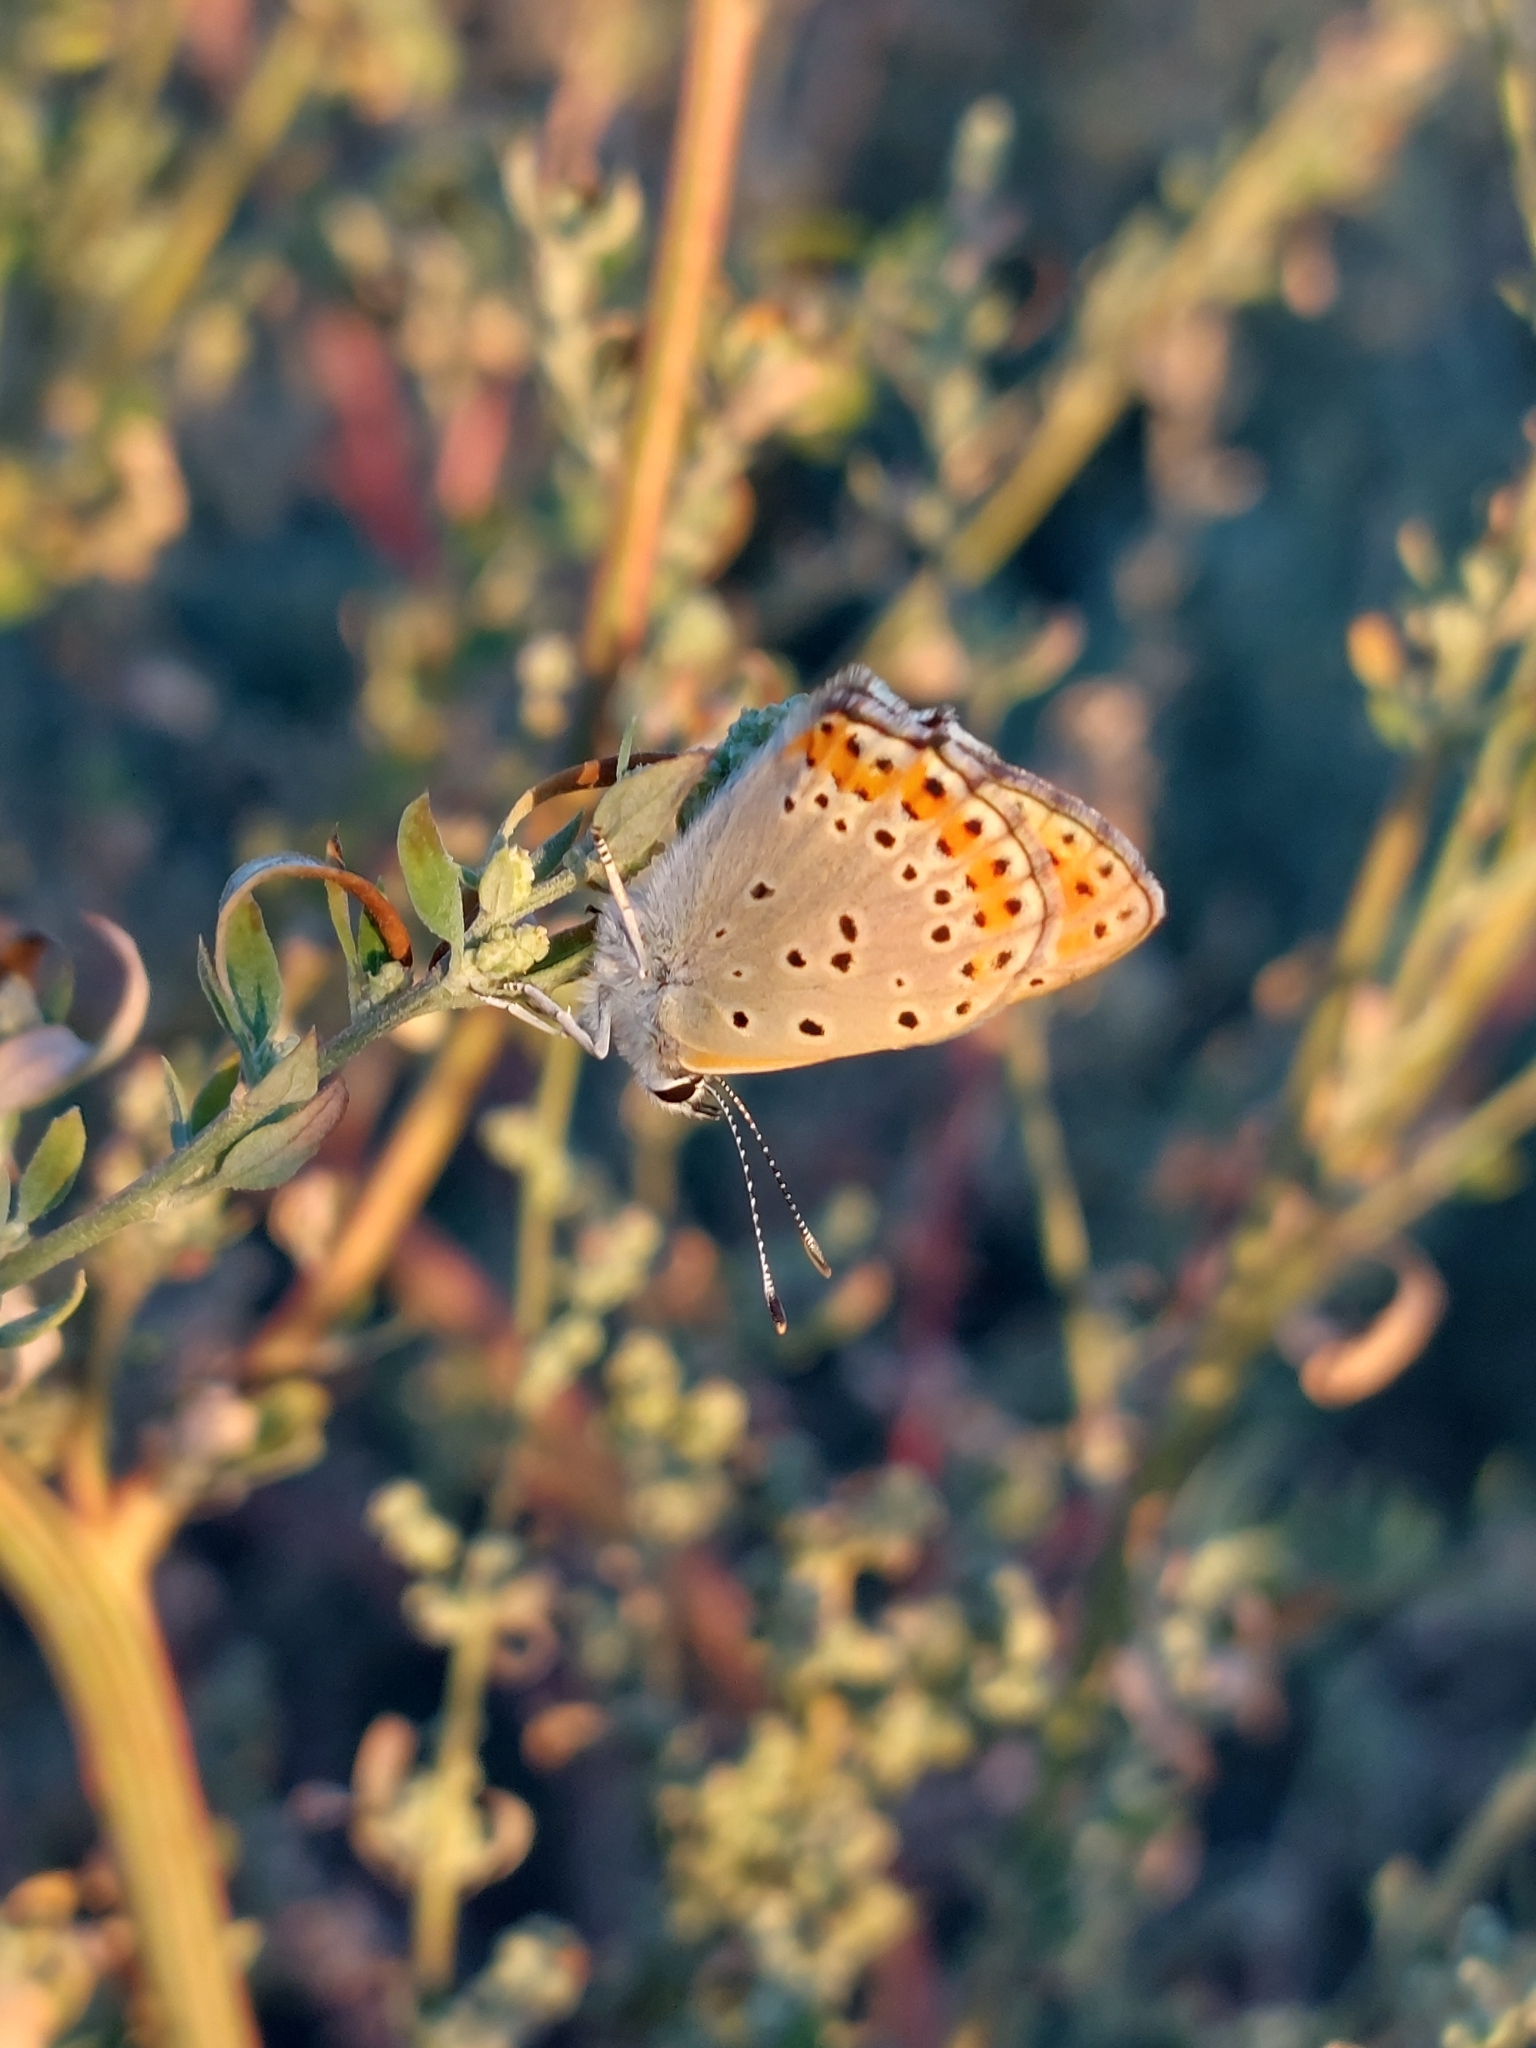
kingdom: Animalia
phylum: Arthropoda
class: Insecta
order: Lepidoptera
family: Lycaenidae
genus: Thersamonia
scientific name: Thersamonia thersamon
